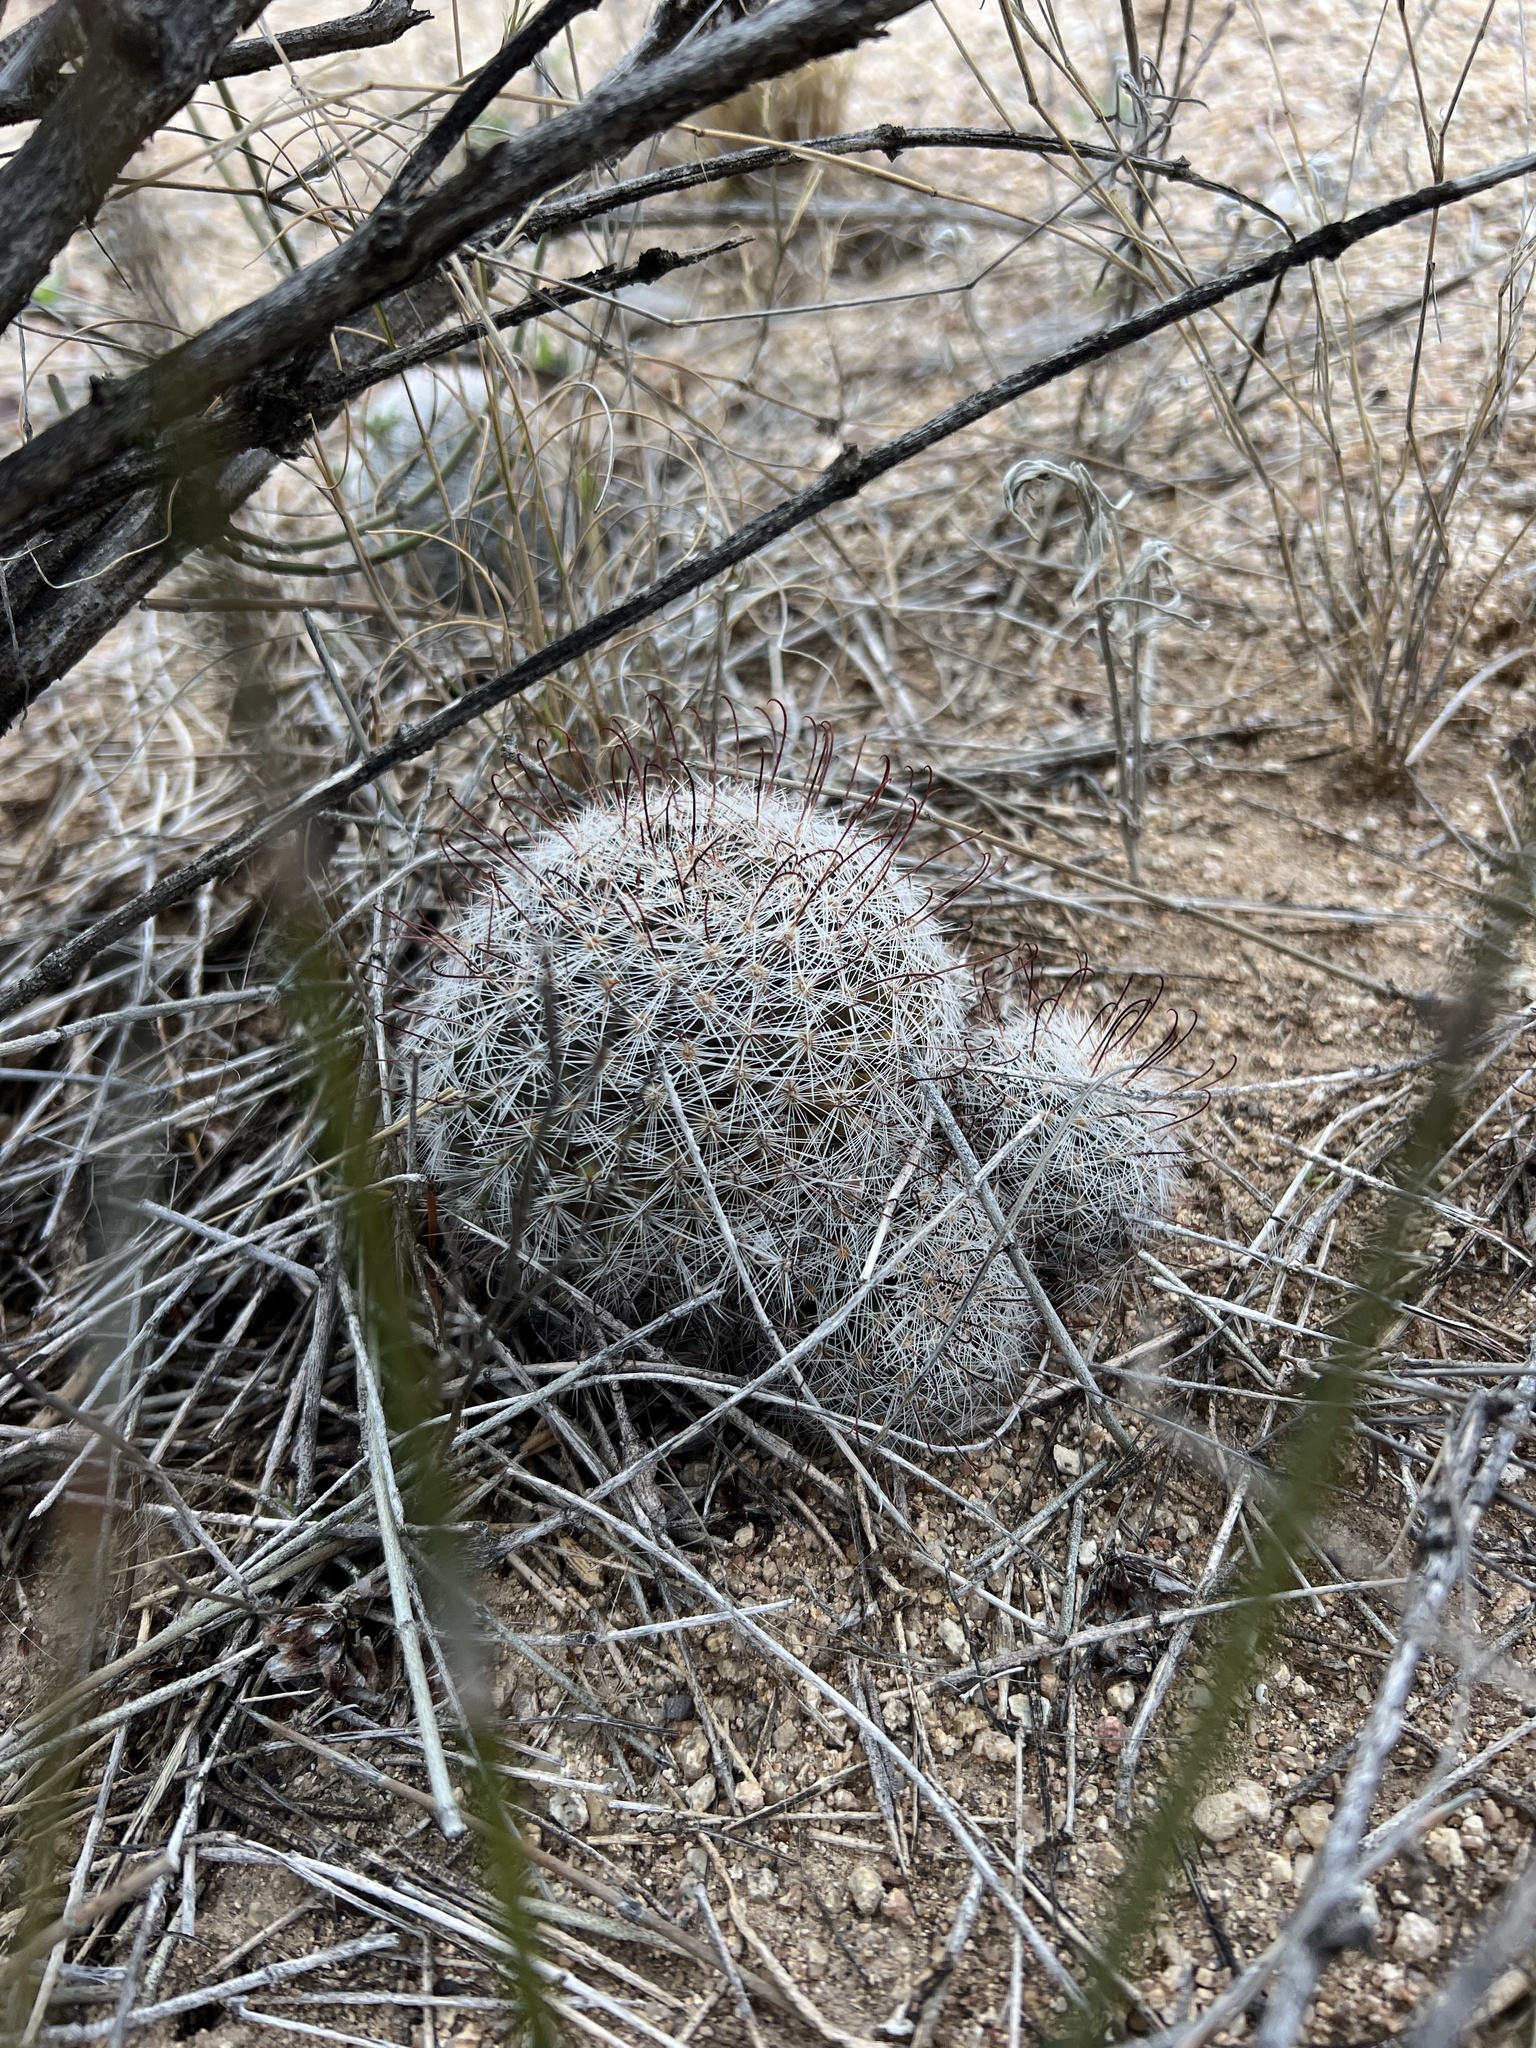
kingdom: Plantae
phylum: Tracheophyta
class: Magnoliopsida
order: Caryophyllales
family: Cactaceae
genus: Cochemiea
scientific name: Cochemiea grahamii
